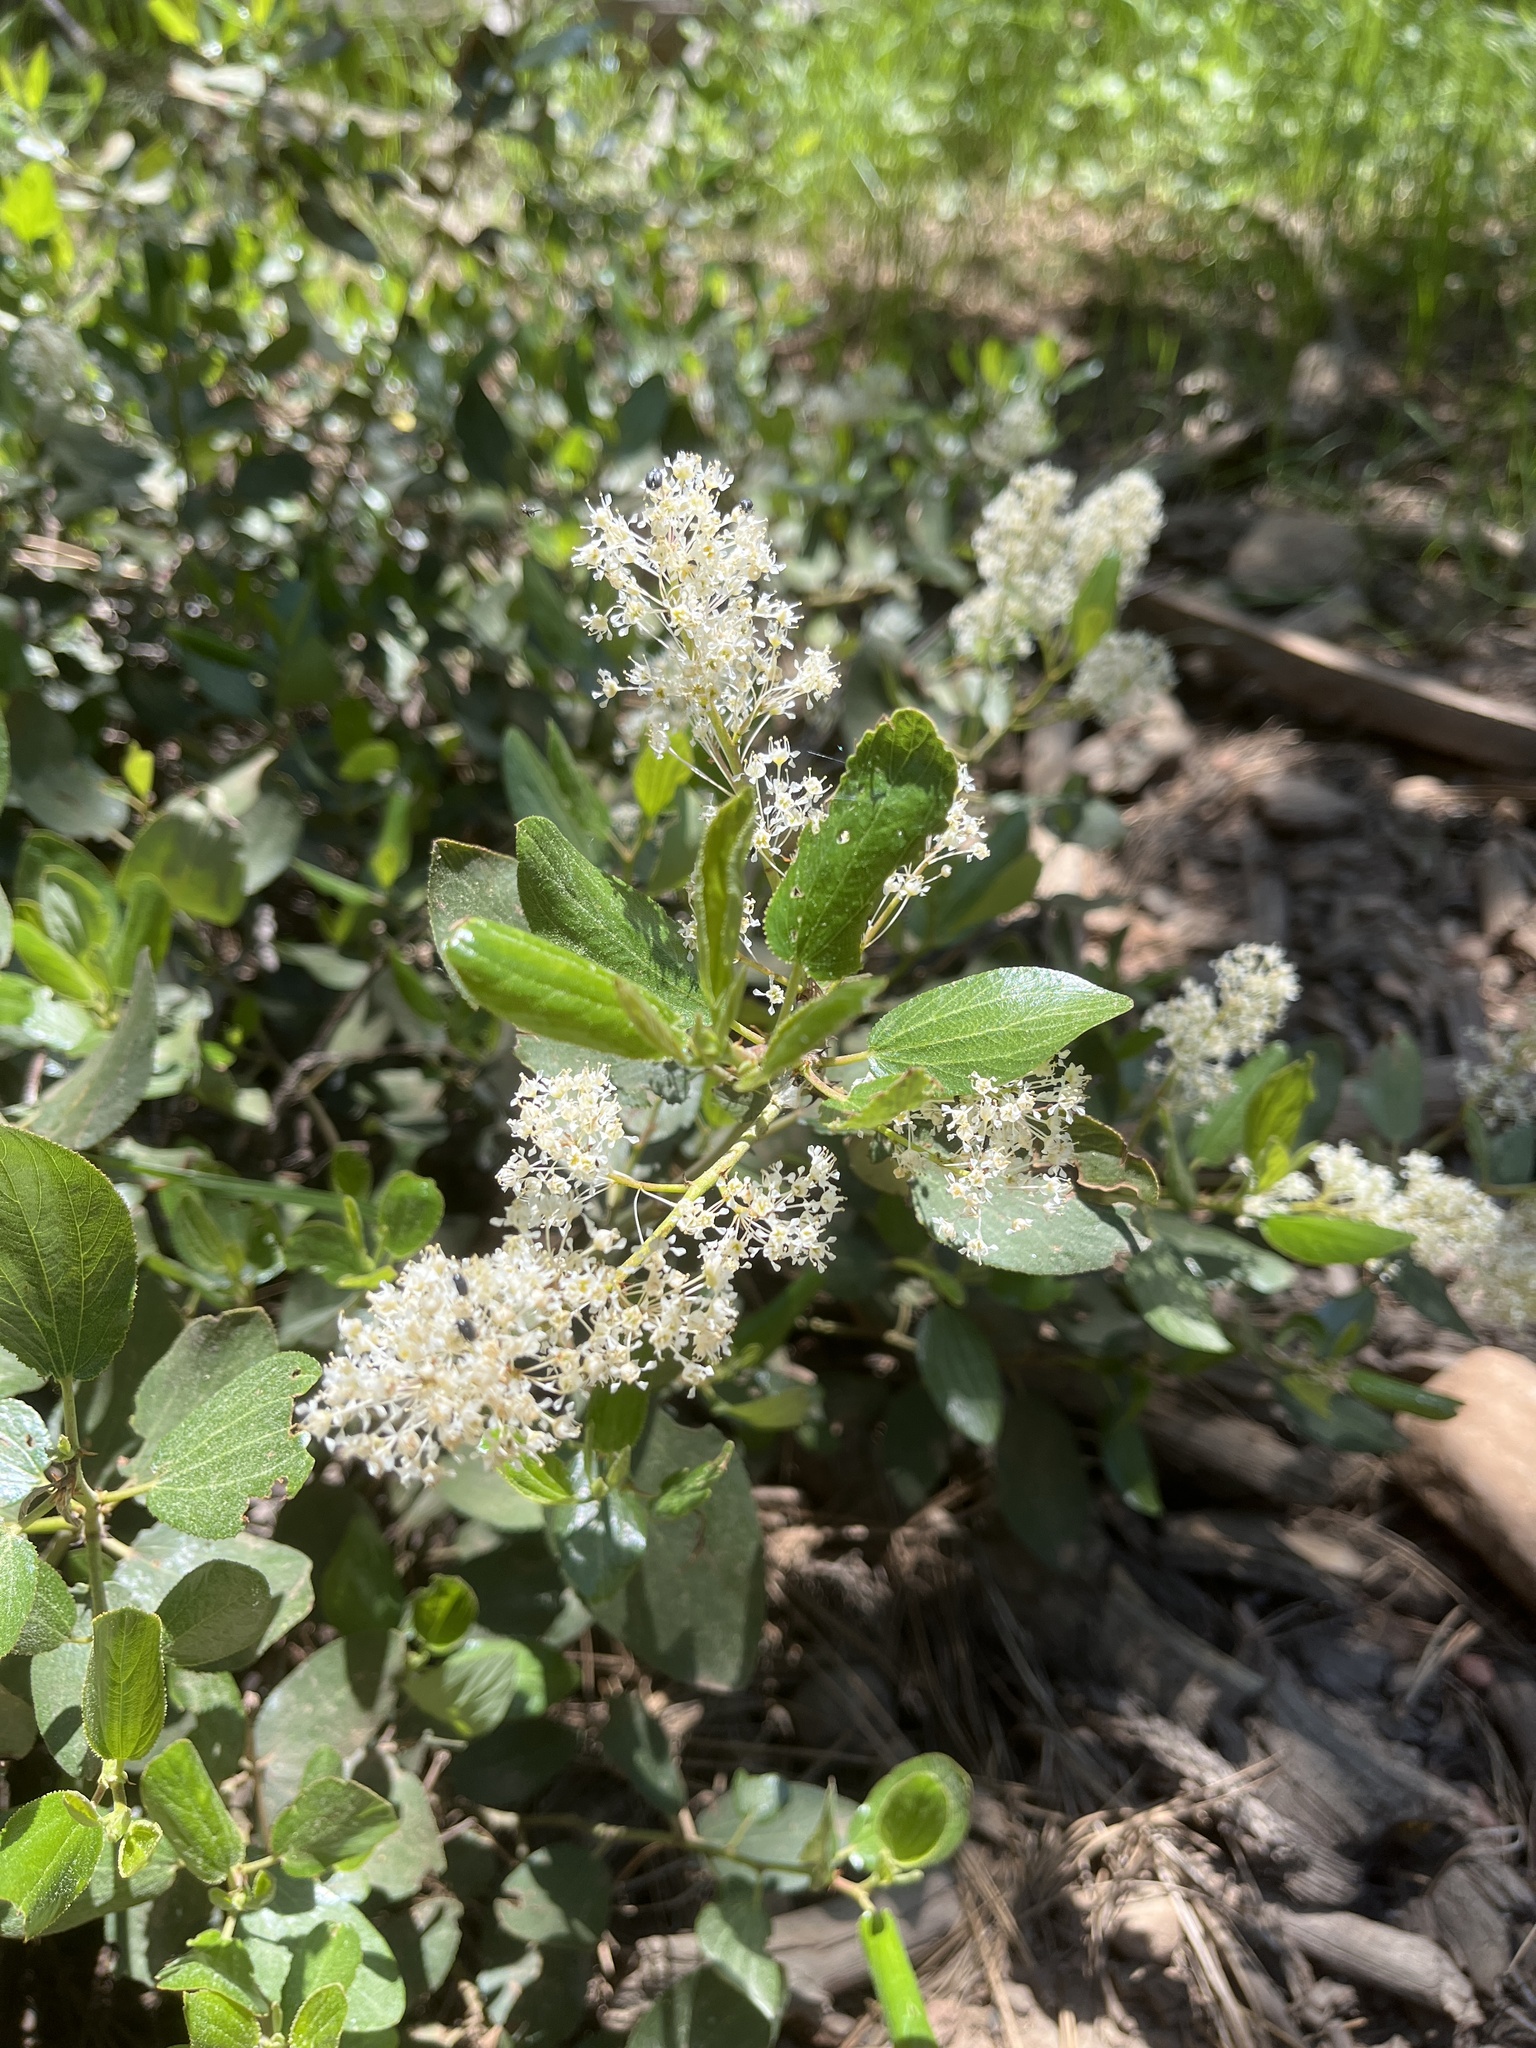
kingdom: Plantae
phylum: Tracheophyta
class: Magnoliopsida
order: Rosales
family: Rhamnaceae
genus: Ceanothus
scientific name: Ceanothus velutinus
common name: Snowbrush
